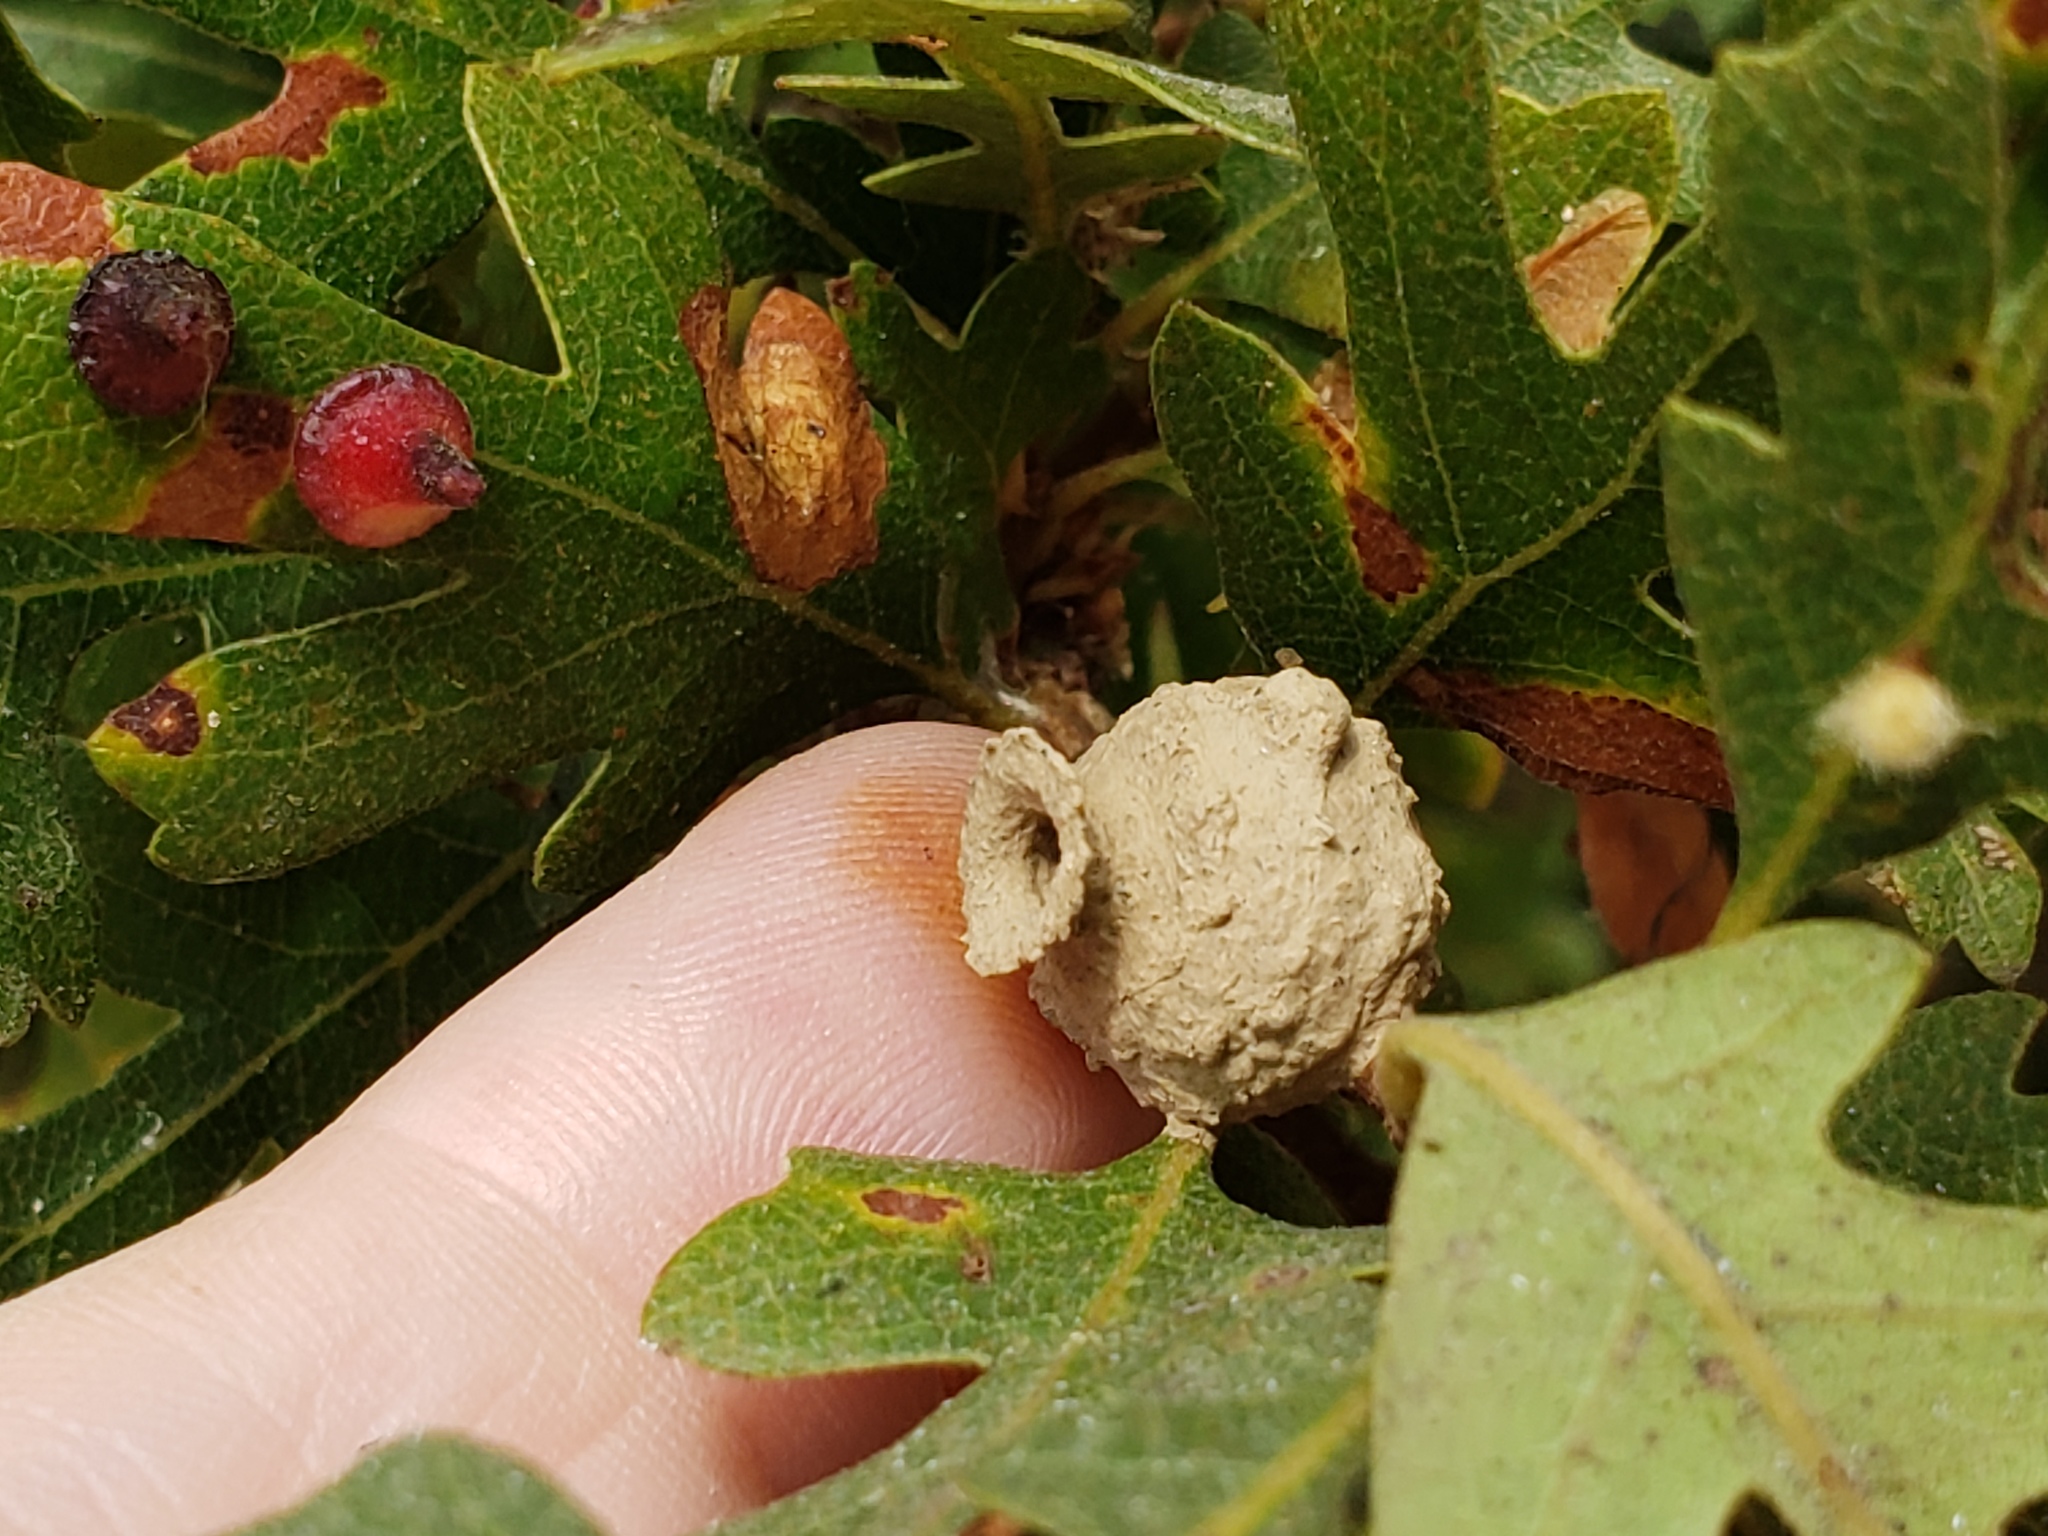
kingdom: Animalia
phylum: Arthropoda
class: Insecta
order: Hymenoptera
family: Vespidae
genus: Eumenes
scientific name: Eumenes
